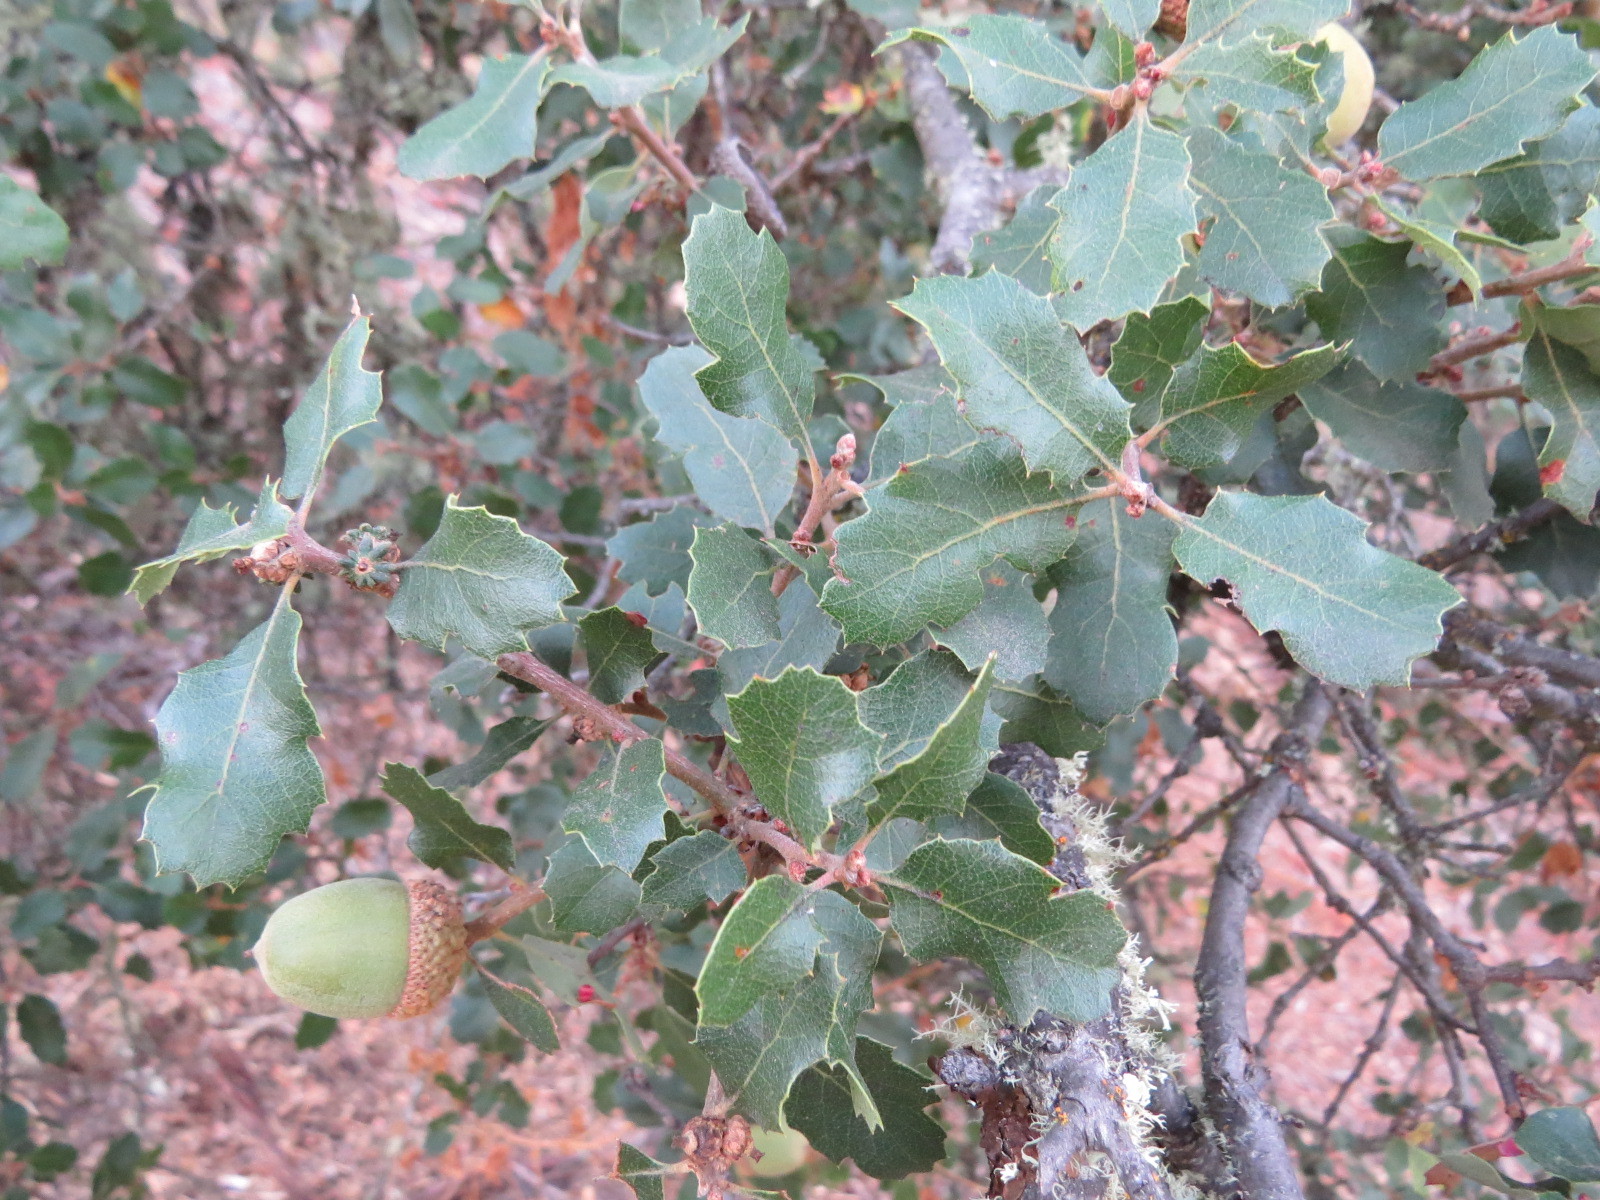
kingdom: Plantae
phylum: Tracheophyta
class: Magnoliopsida
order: Fagales
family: Fagaceae
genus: Quercus
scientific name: Quercus berberidifolia
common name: California scrub oak
